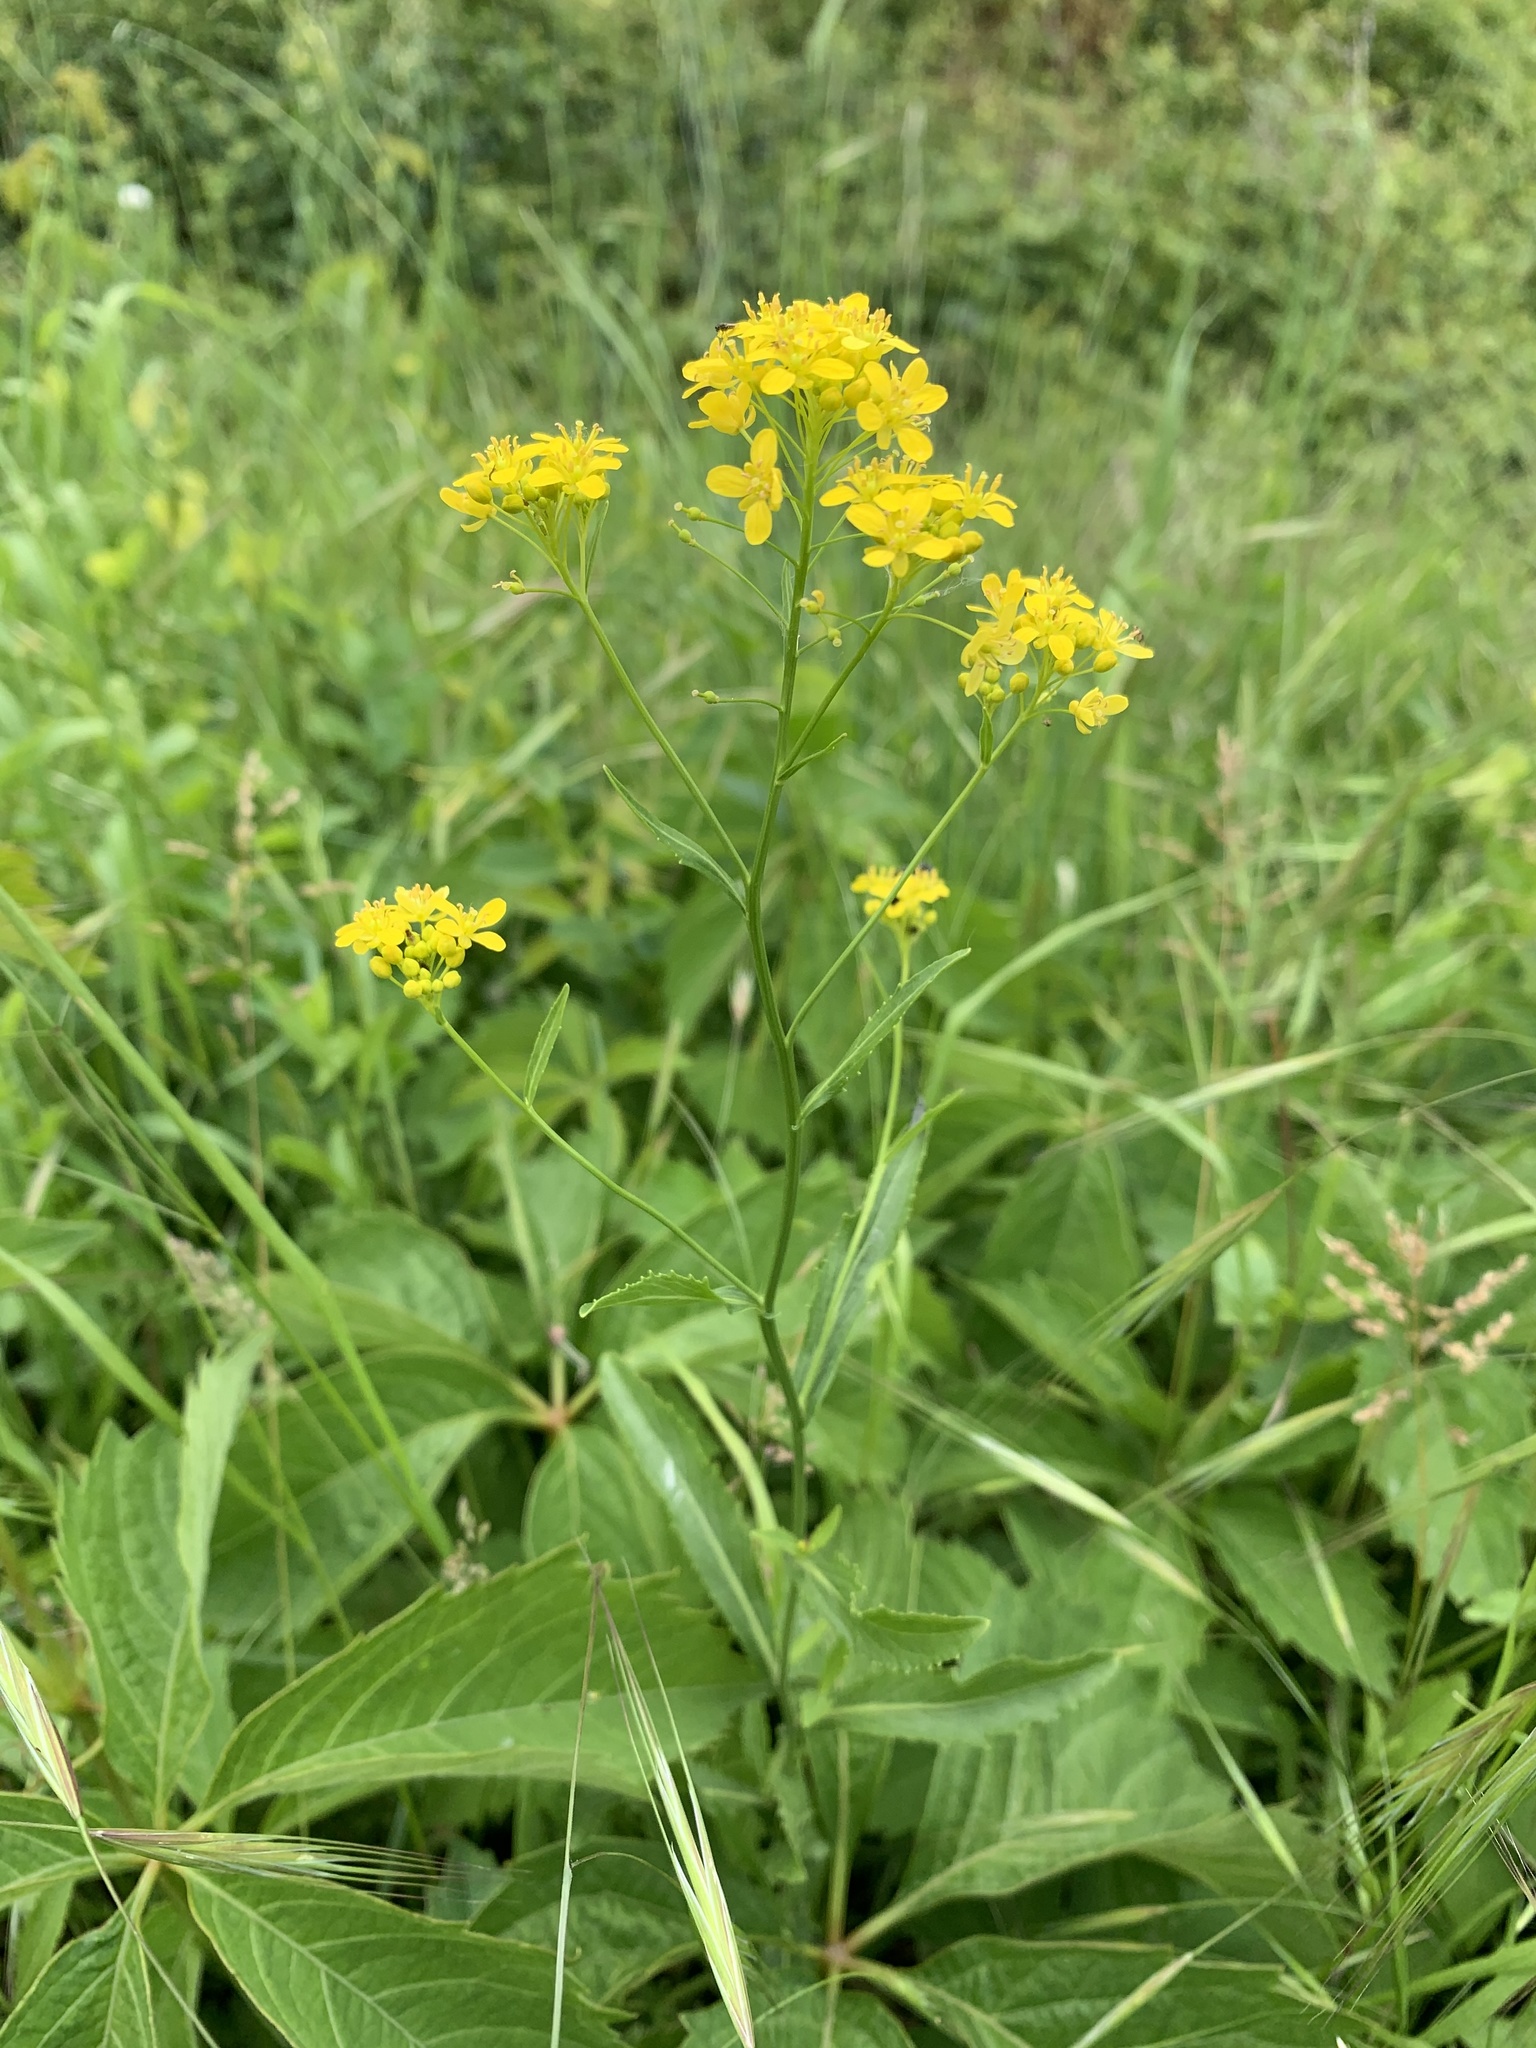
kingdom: Plantae
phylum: Tracheophyta
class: Magnoliopsida
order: Brassicales
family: Brassicaceae
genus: Rorippa
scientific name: Rorippa amphibia
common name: Great yellow-cress
